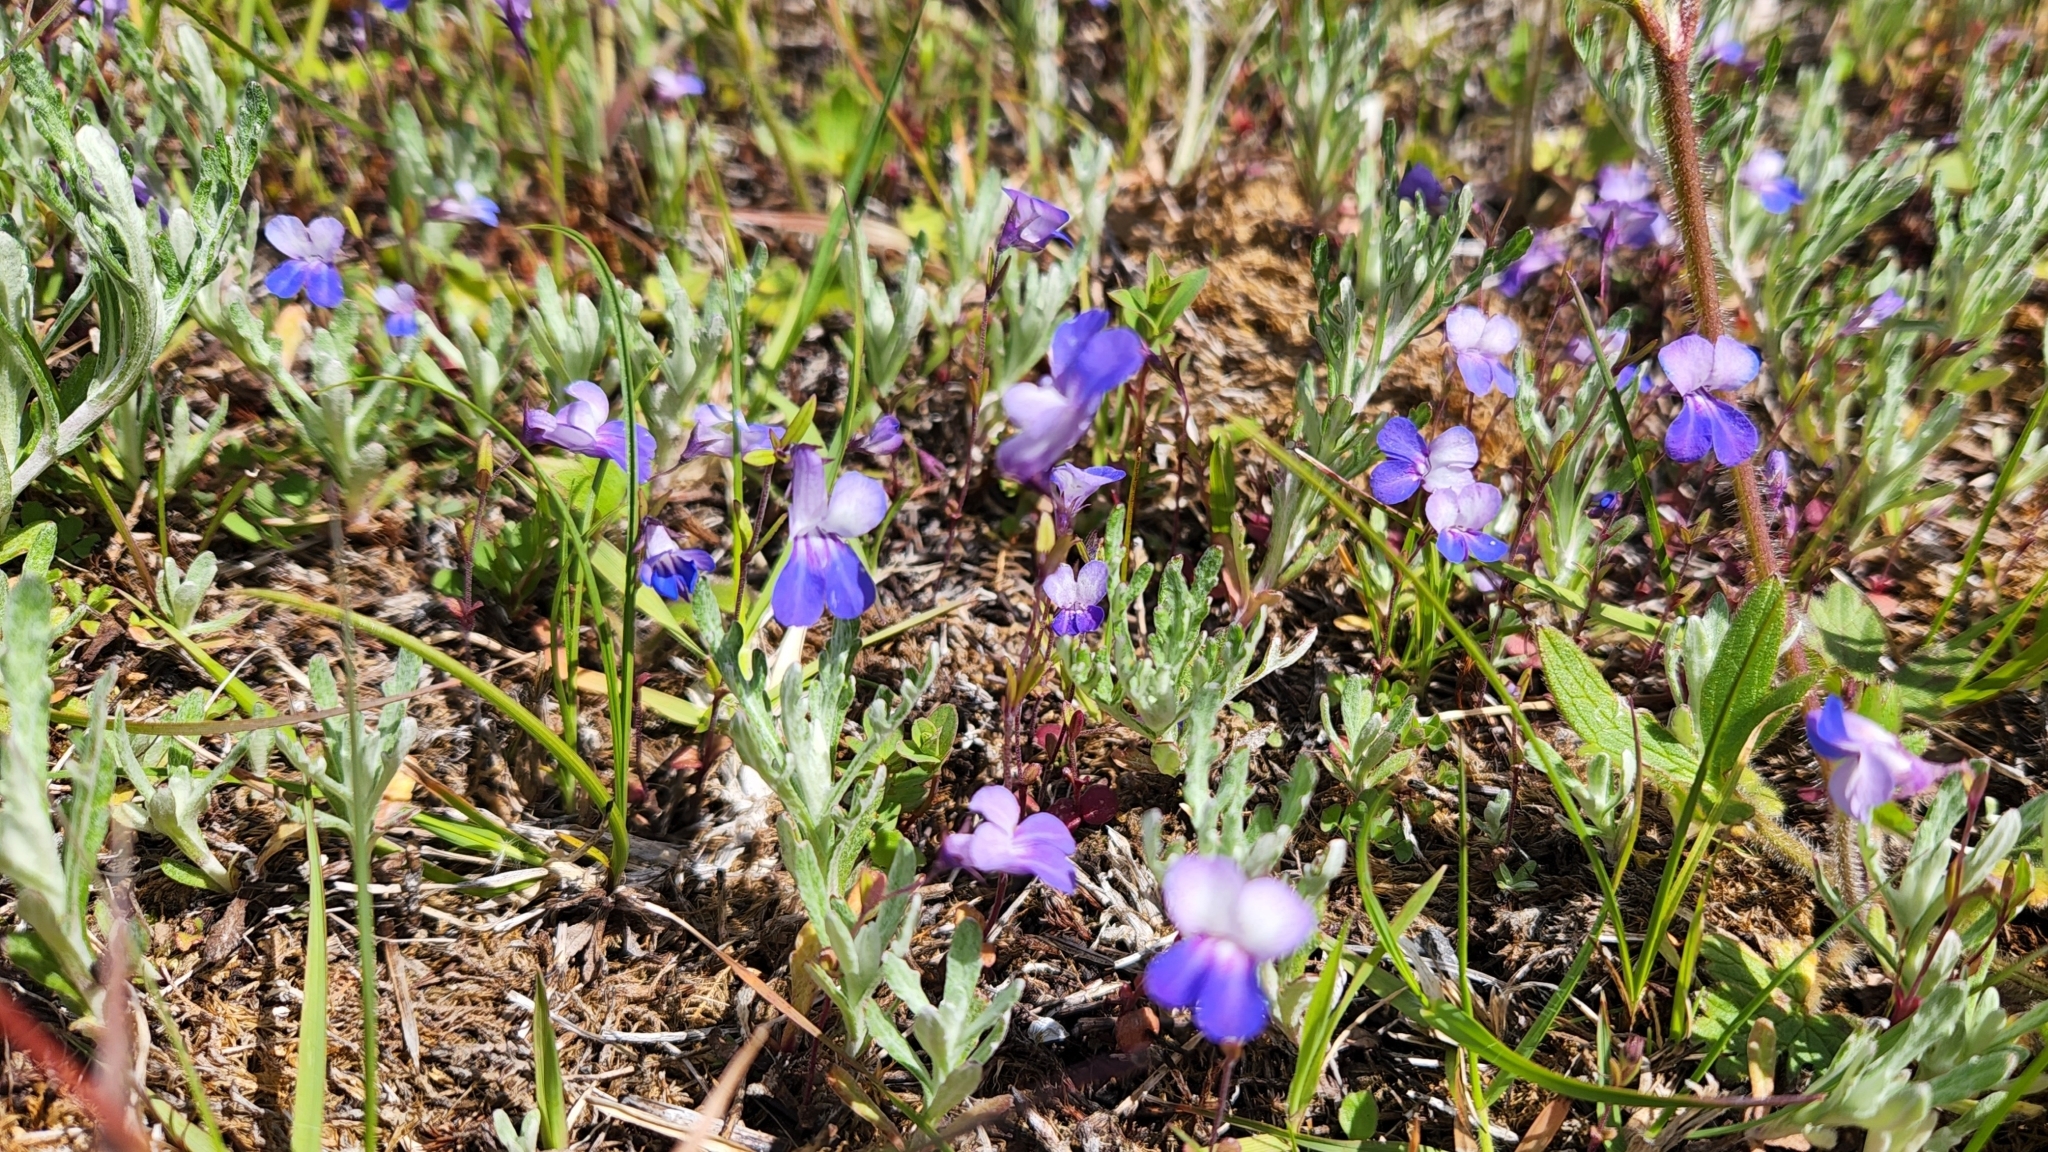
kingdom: Plantae
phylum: Tracheophyta
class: Magnoliopsida
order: Lamiales
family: Plantaginaceae
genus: Collinsia
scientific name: Collinsia grandiflora
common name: Large-flower blue-eyed-mary
